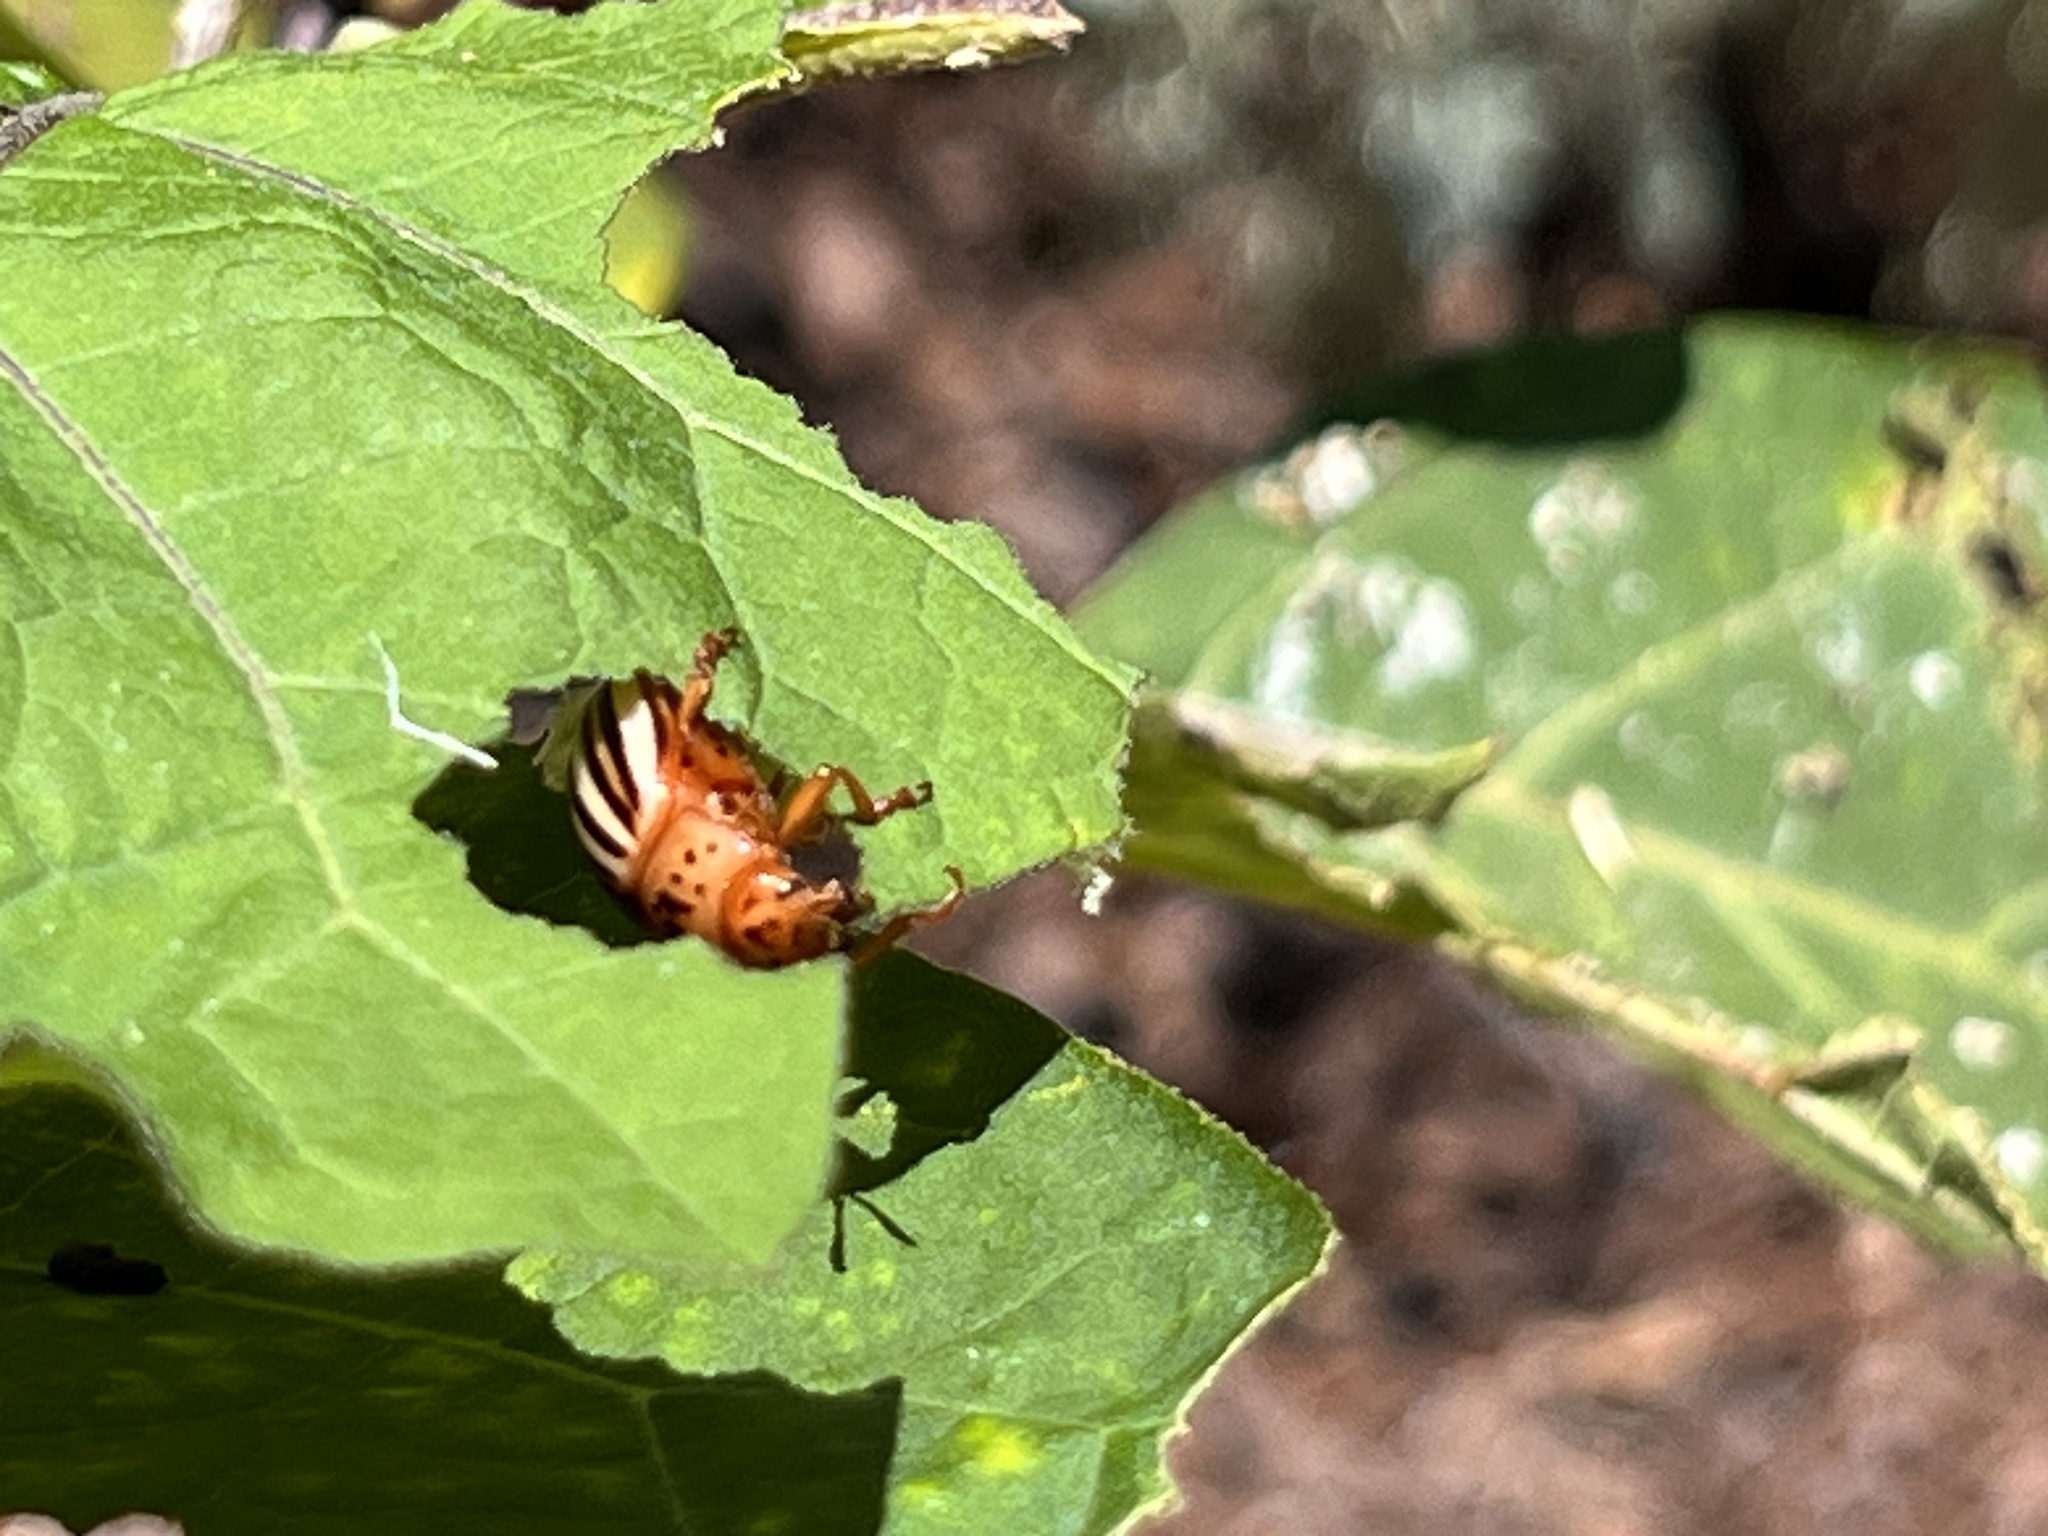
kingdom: Animalia
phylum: Arthropoda
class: Insecta
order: Coleoptera
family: Chrysomelidae
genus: Leptinotarsa
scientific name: Leptinotarsa juncta
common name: False potato beetle
